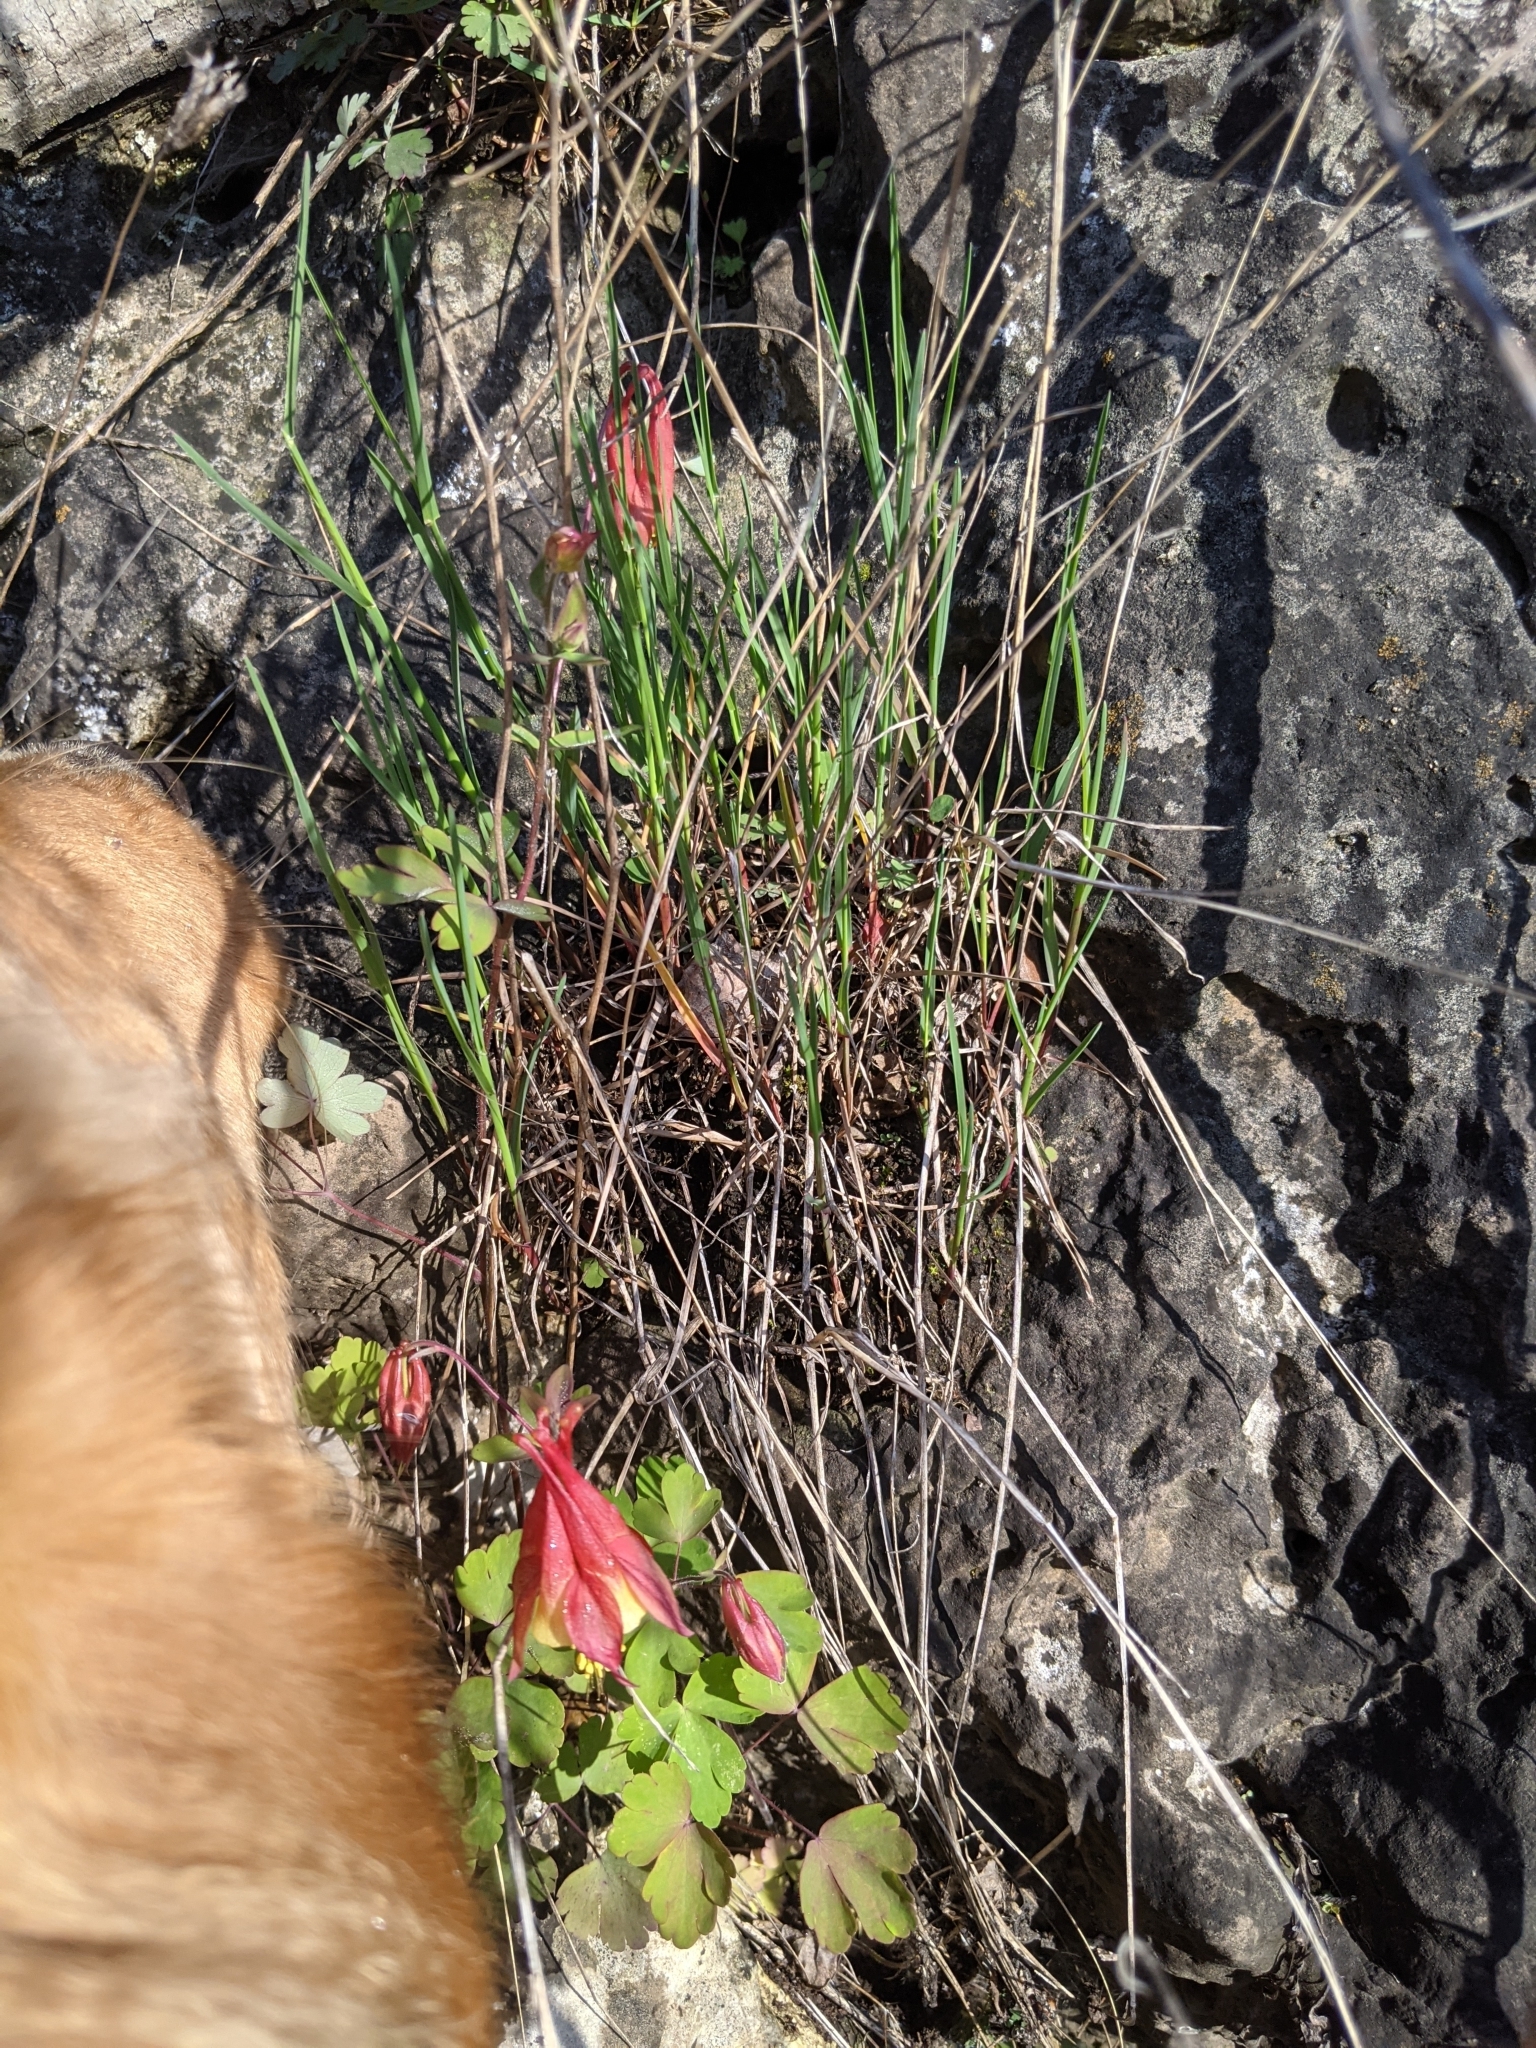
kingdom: Plantae
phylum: Tracheophyta
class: Magnoliopsida
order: Ranunculales
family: Ranunculaceae
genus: Aquilegia
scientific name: Aquilegia canadensis
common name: American columbine
